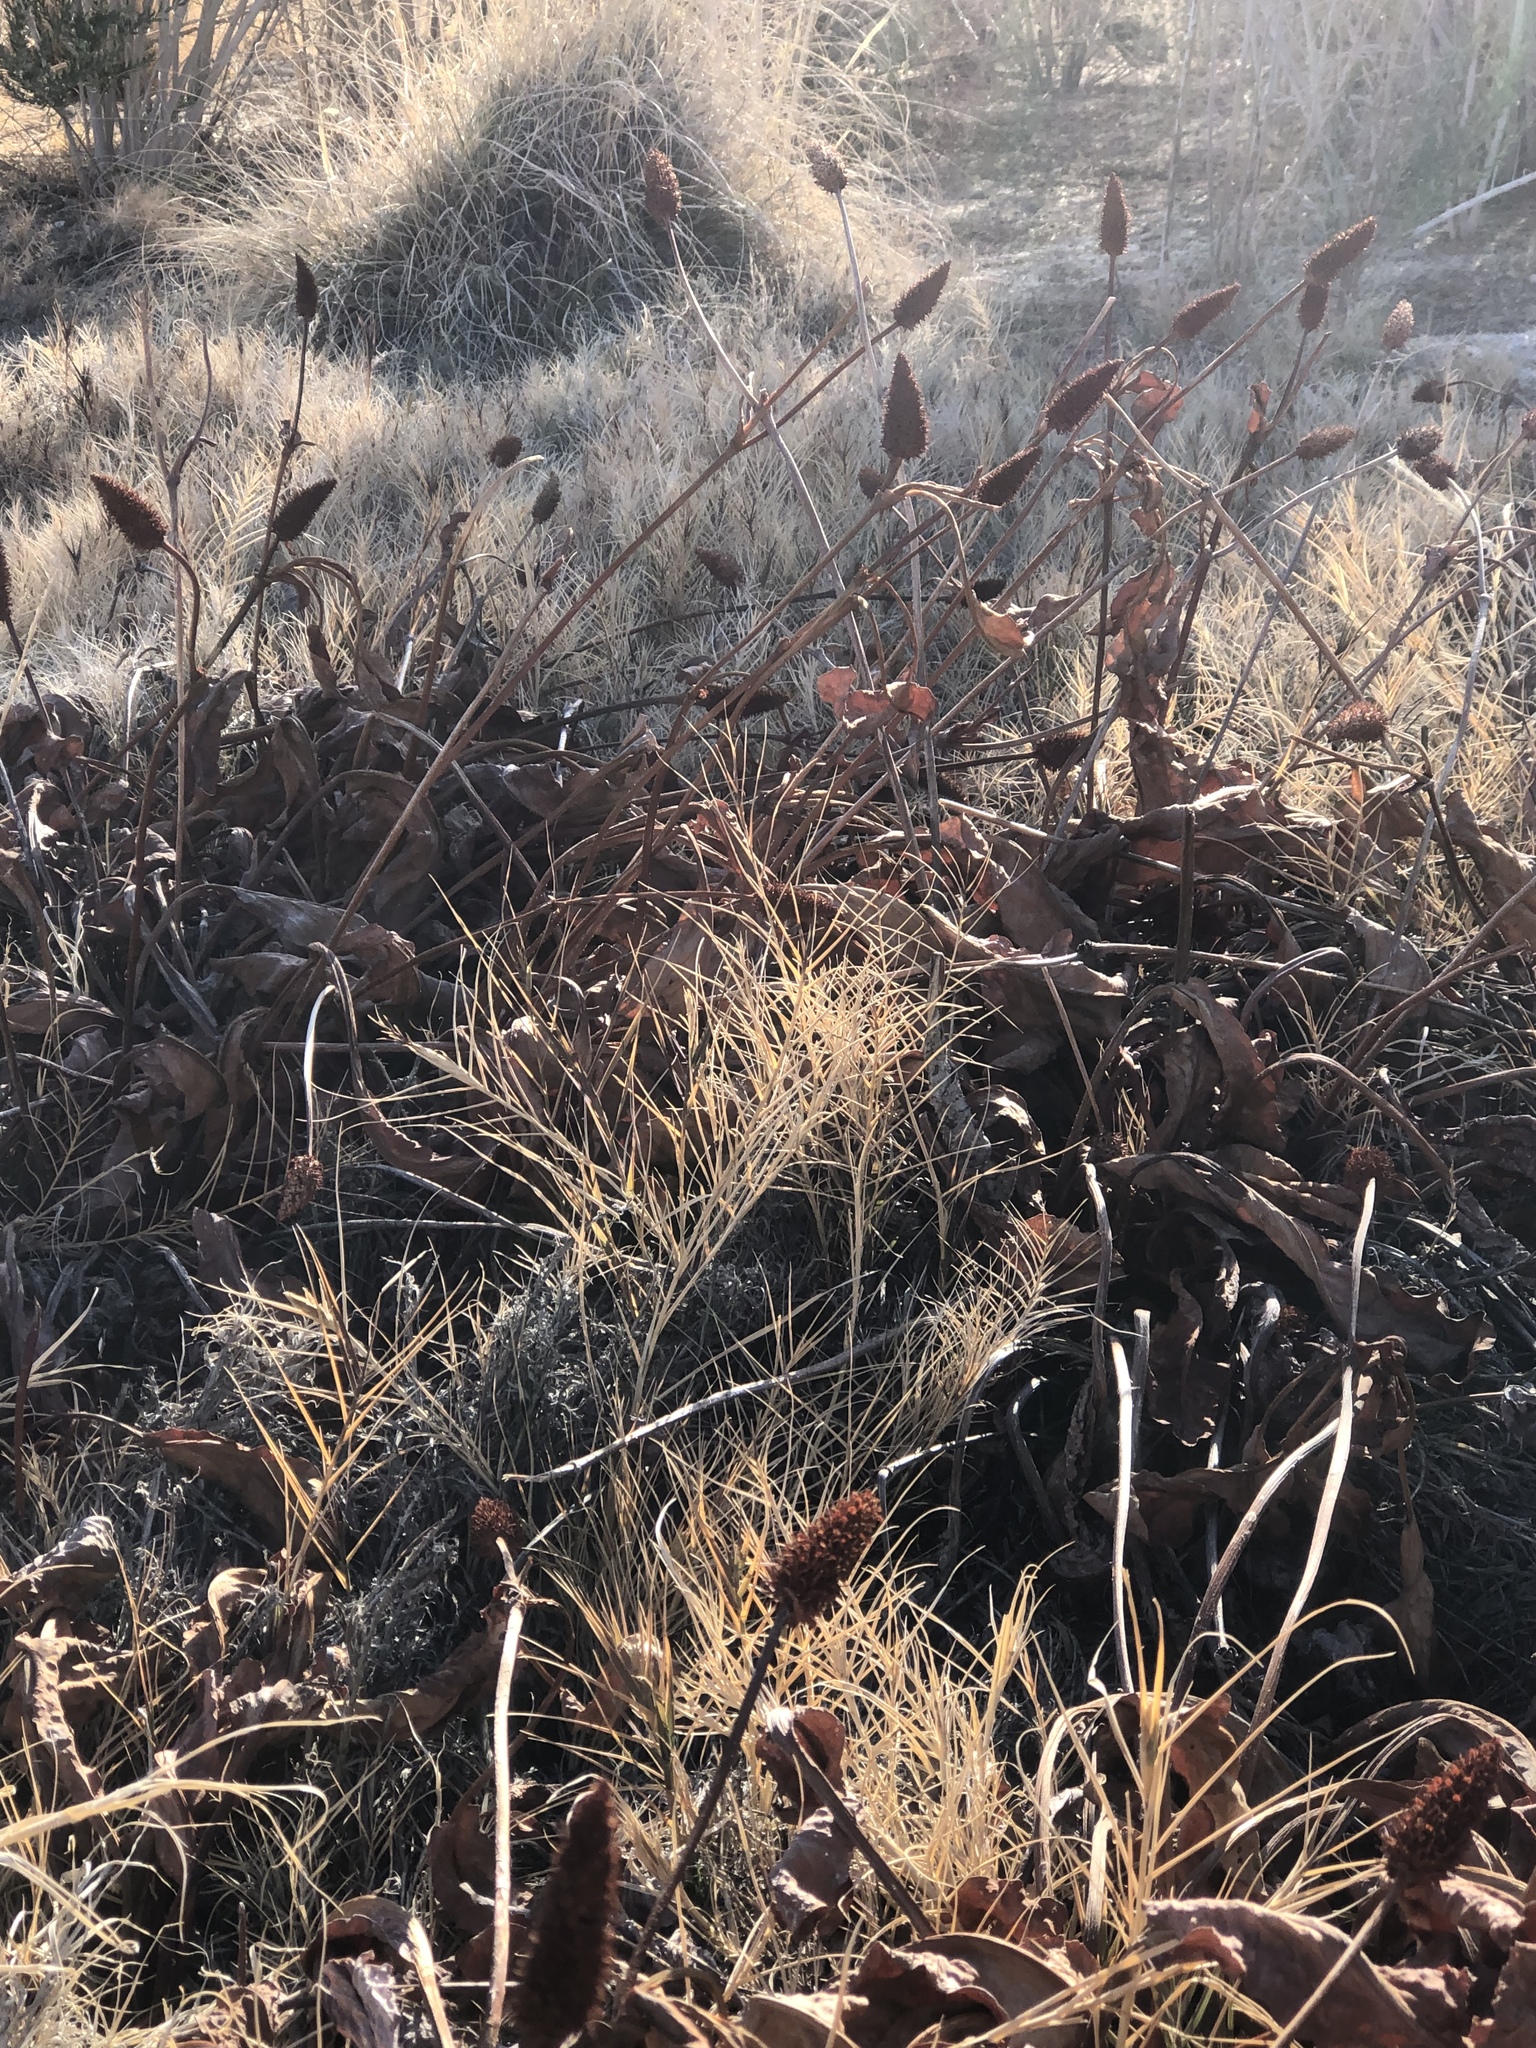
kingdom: Plantae
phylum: Tracheophyta
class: Magnoliopsida
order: Piperales
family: Saururaceae
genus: Anemopsis
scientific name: Anemopsis californica
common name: Apache-beads
